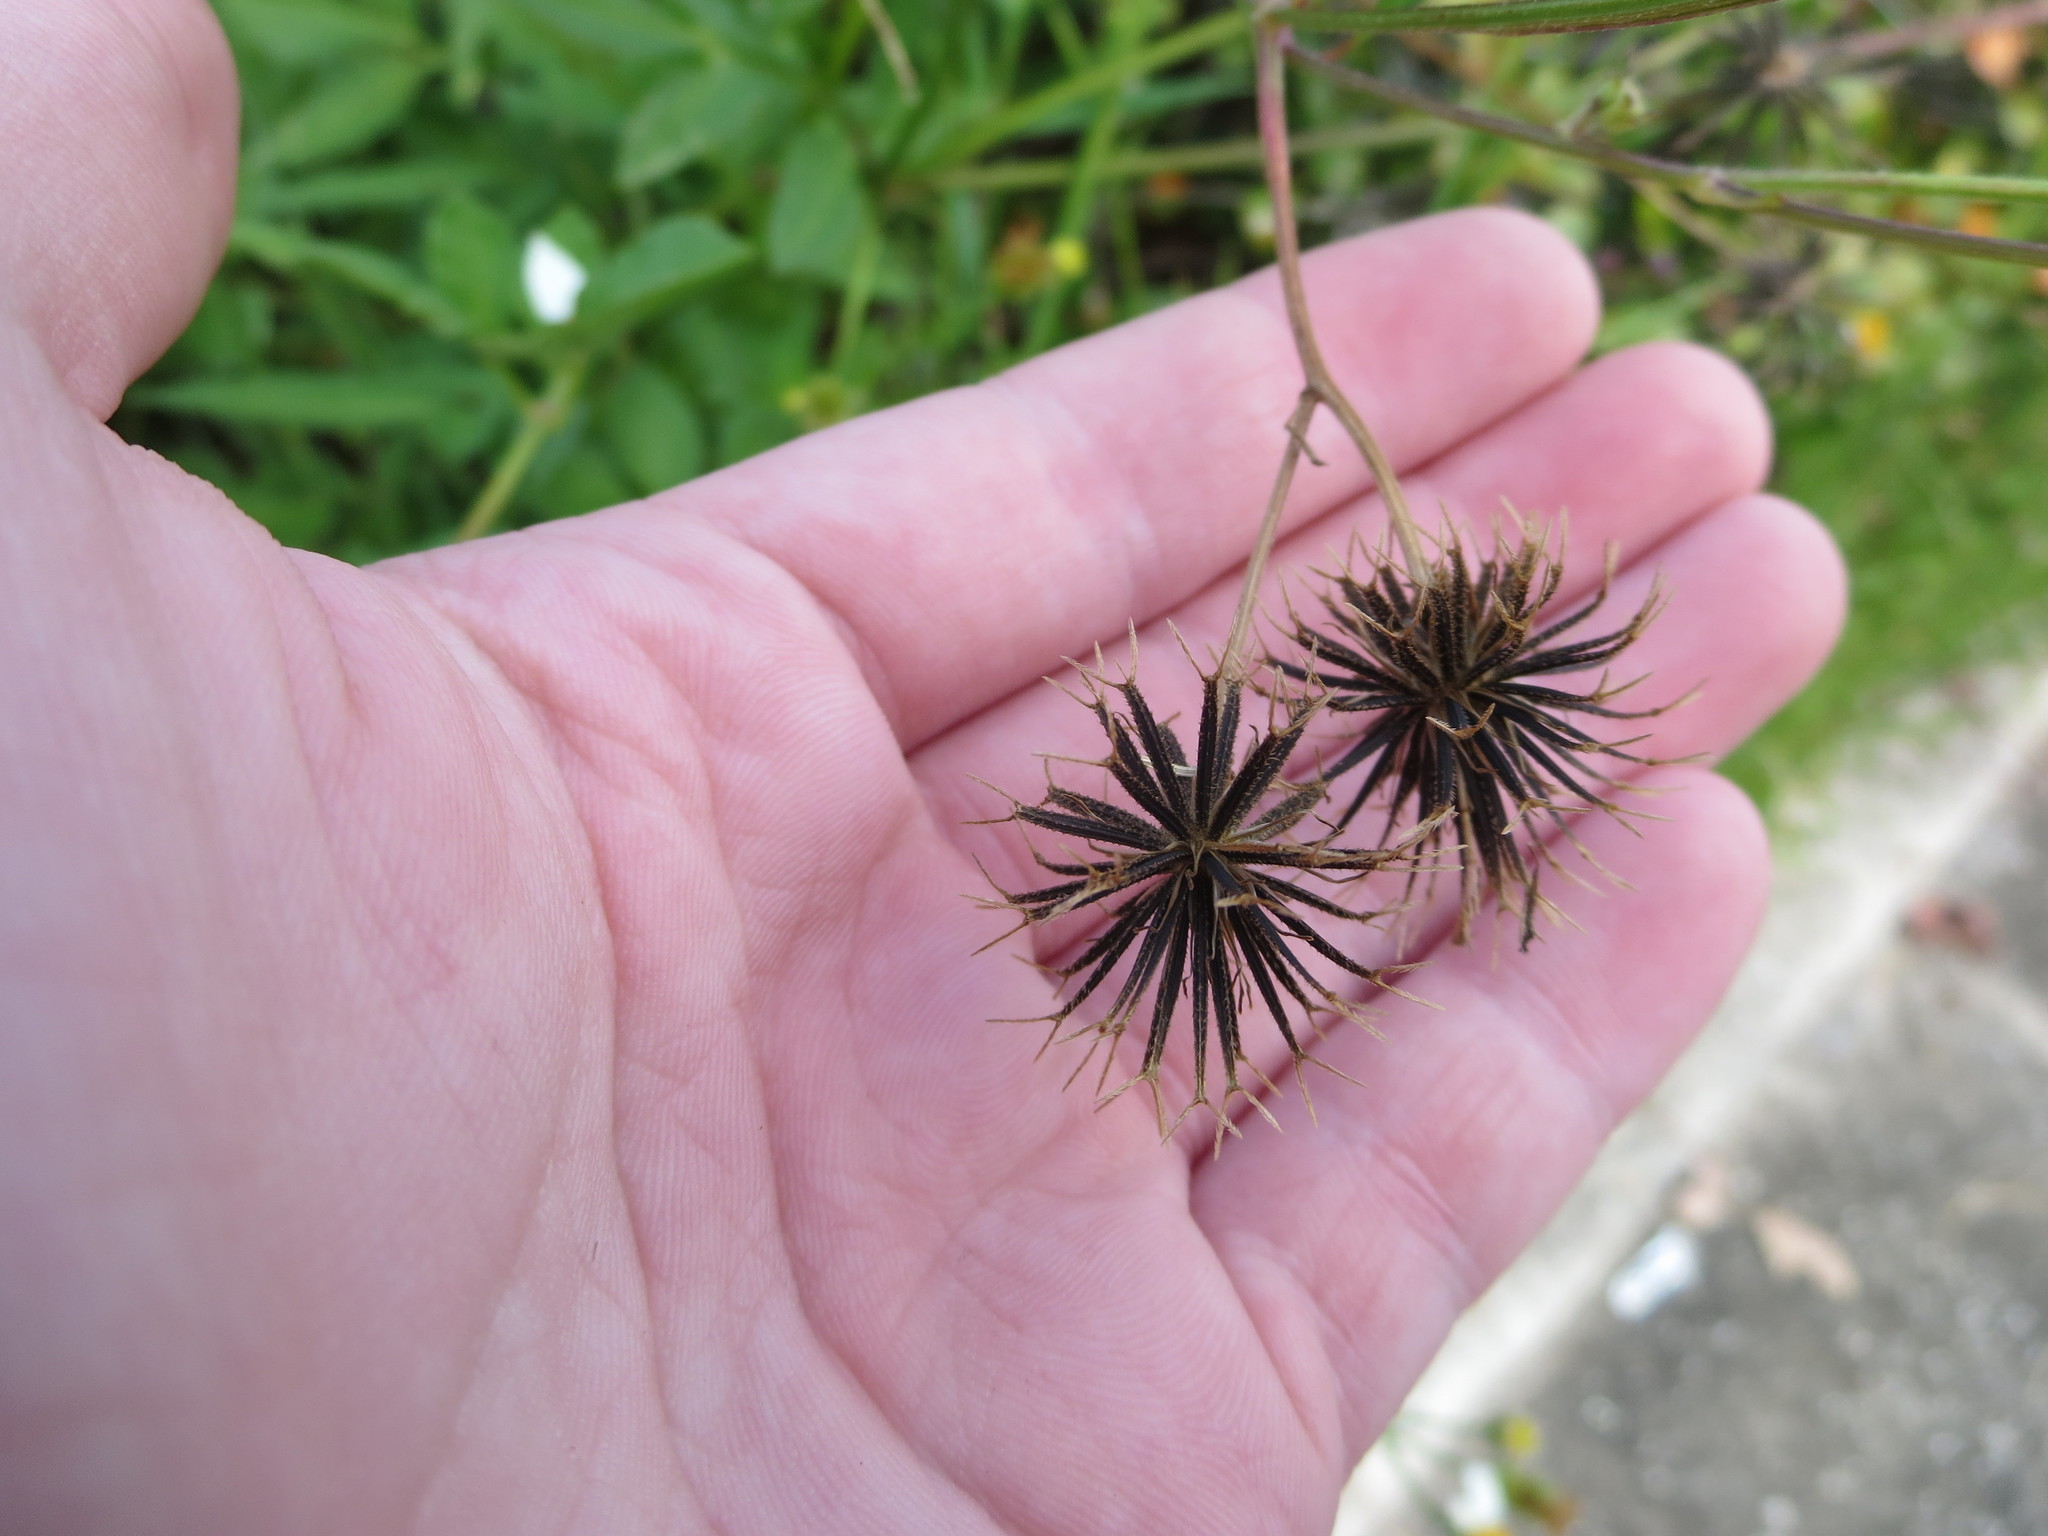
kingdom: Plantae
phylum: Tracheophyta
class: Magnoliopsida
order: Asterales
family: Asteraceae
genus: Bidens
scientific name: Bidens alba
